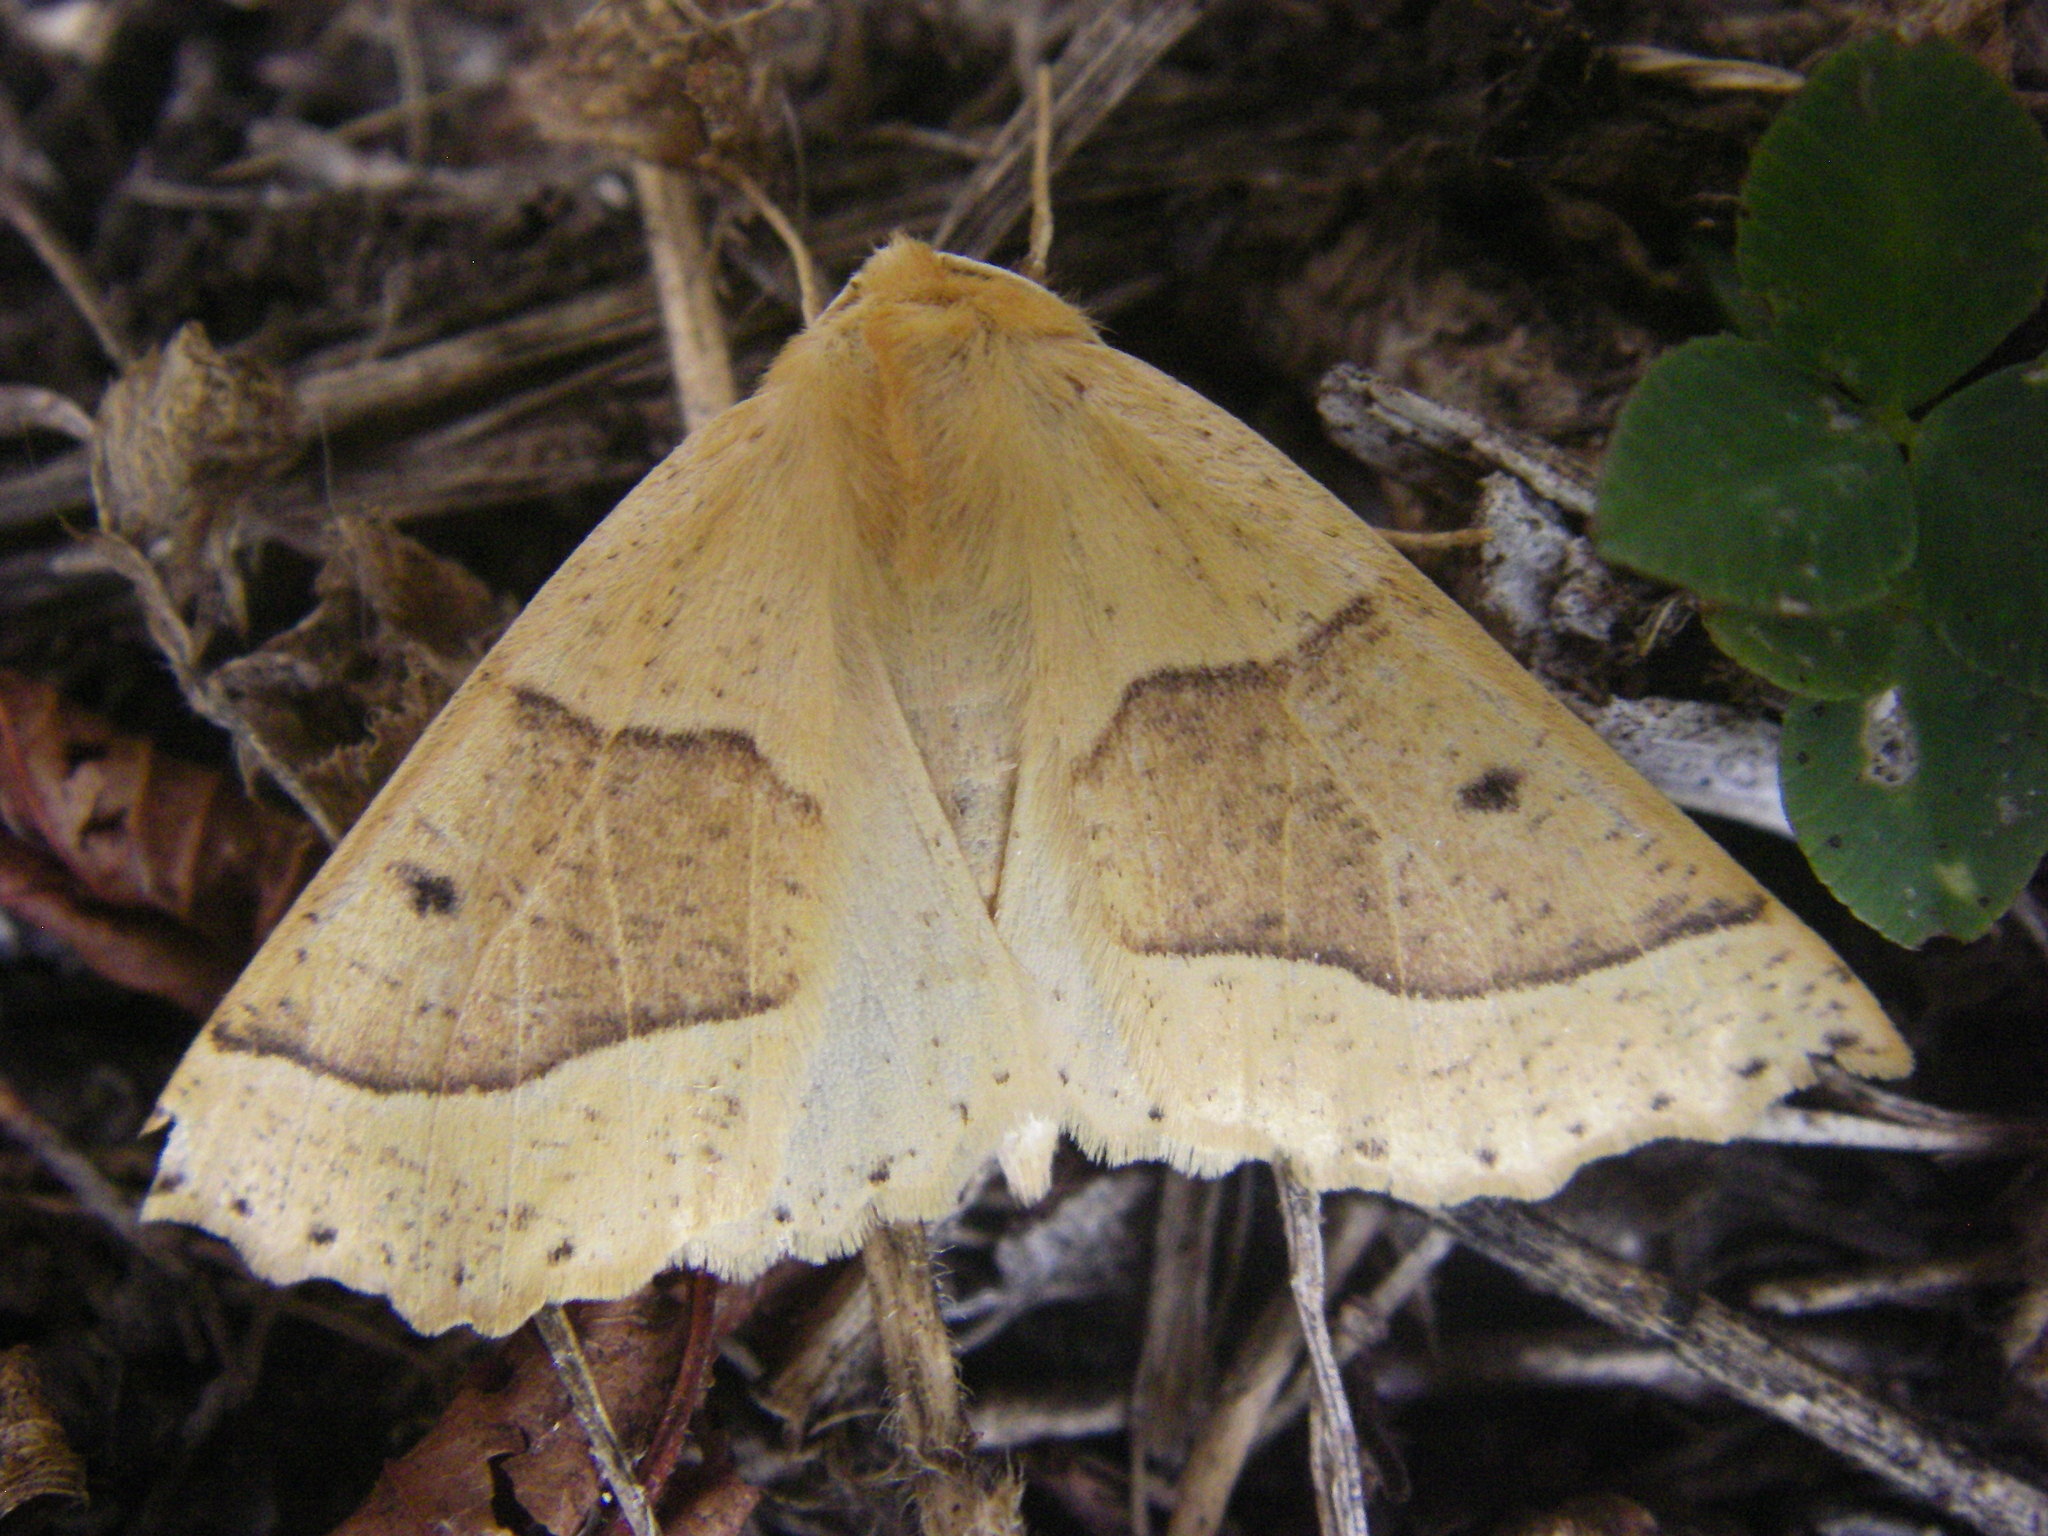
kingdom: Animalia
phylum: Arthropoda
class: Insecta
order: Lepidoptera
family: Geometridae
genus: Crocallis
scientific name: Crocallis elinguaria
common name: Scalloped oak
